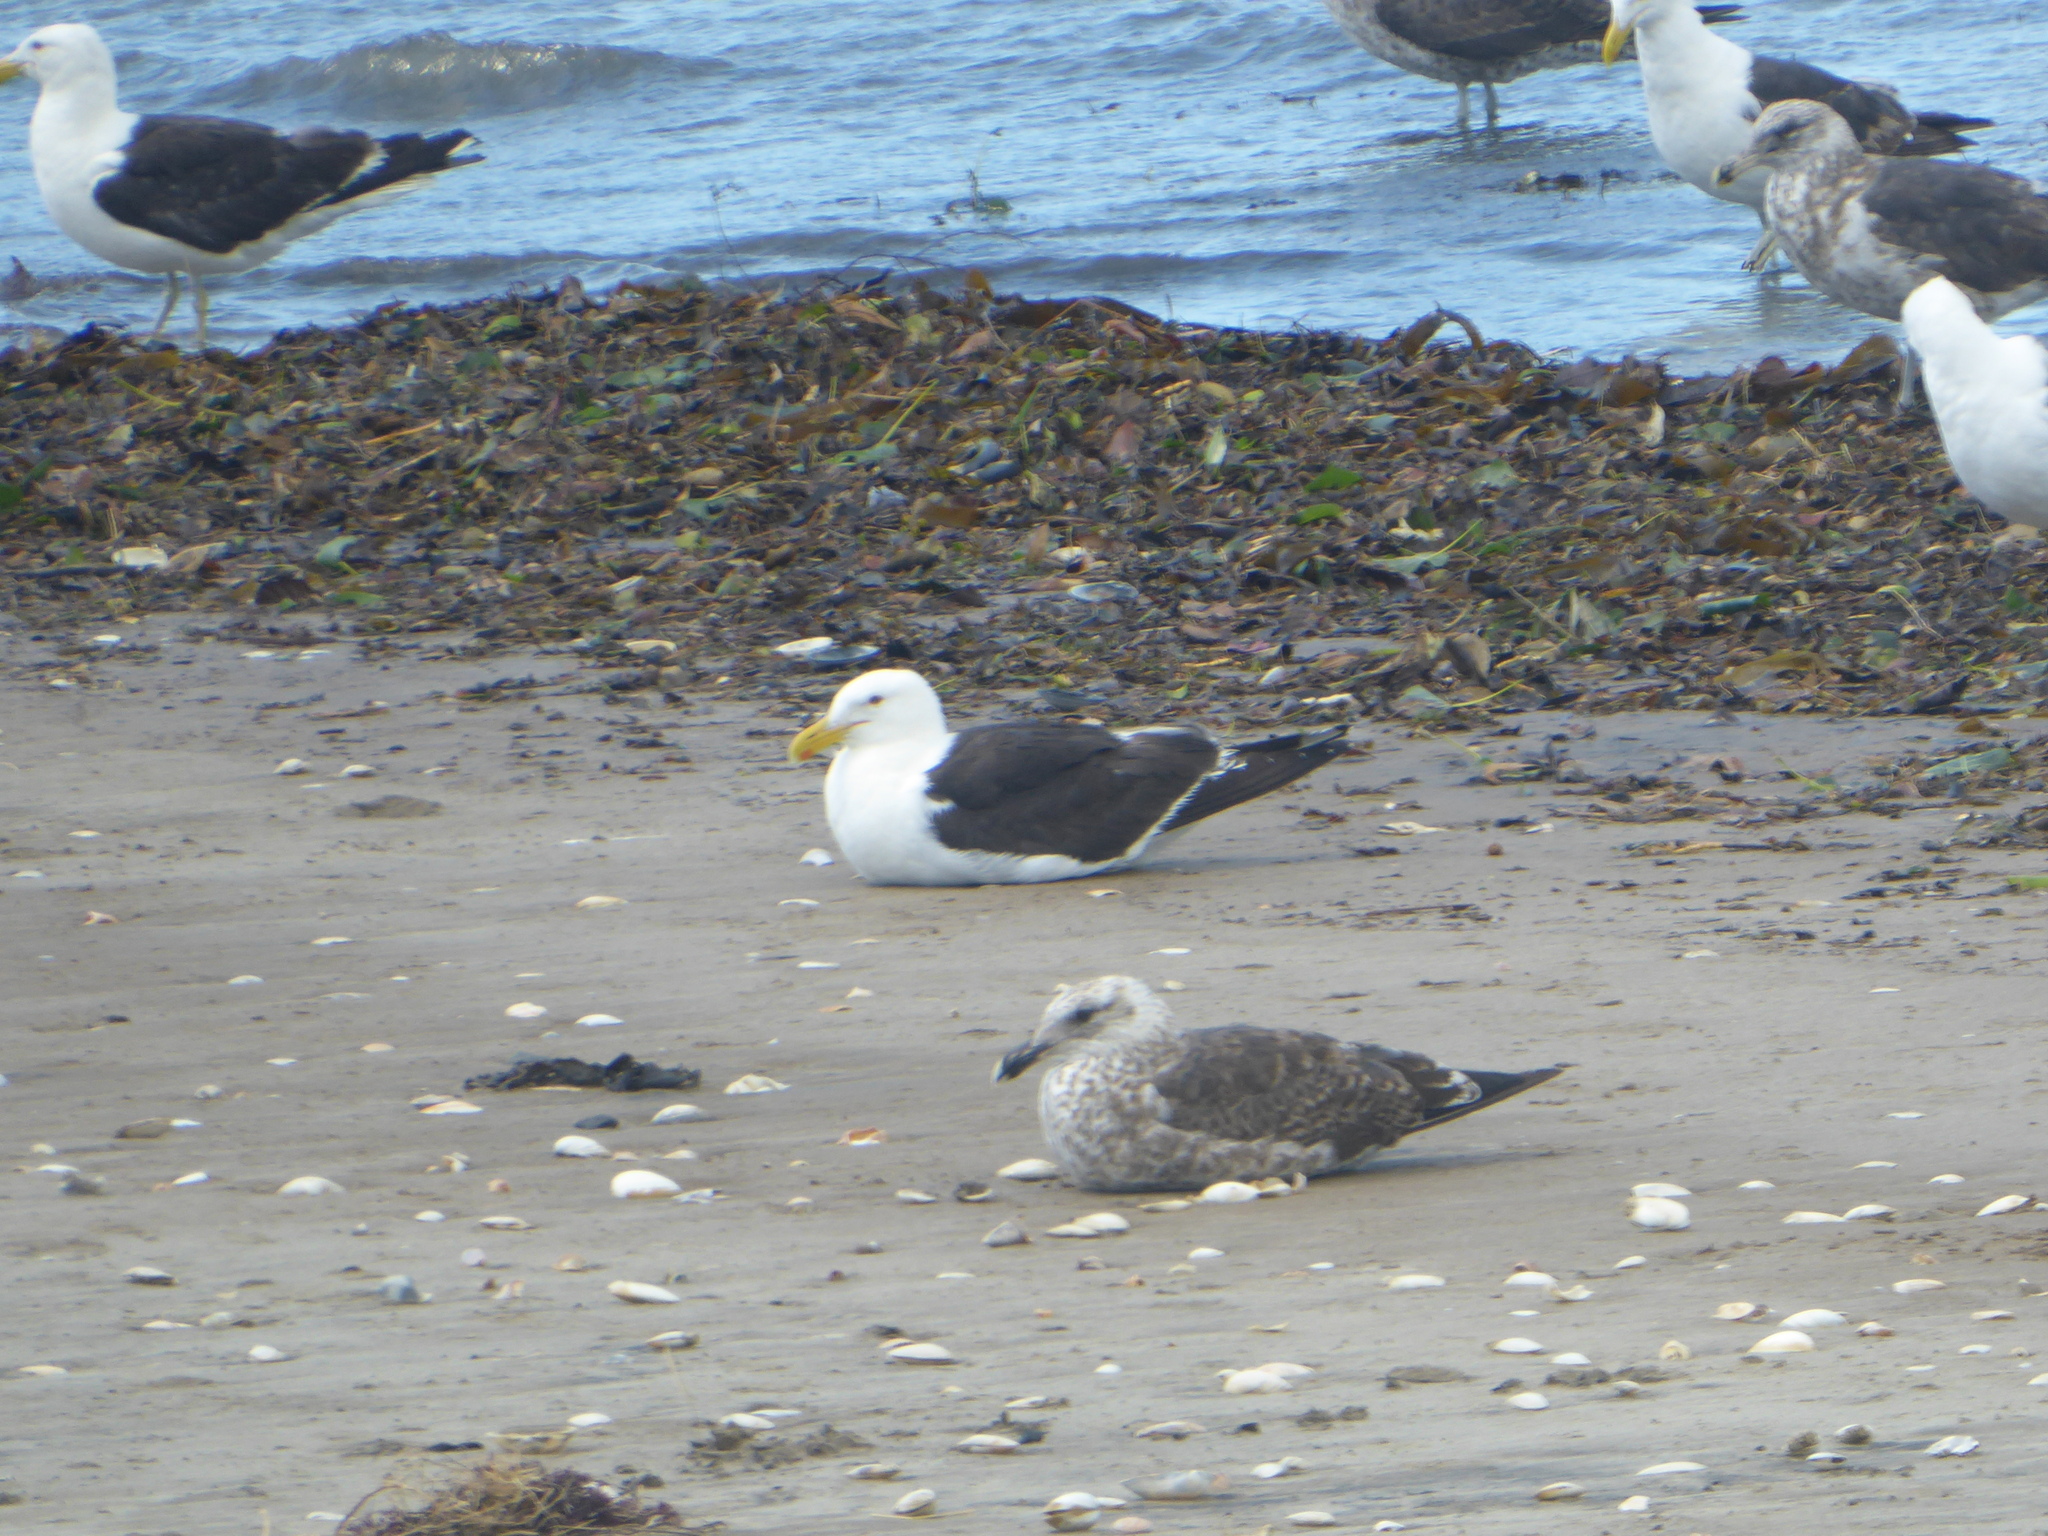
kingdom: Animalia
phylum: Chordata
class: Aves
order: Charadriiformes
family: Laridae
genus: Larus
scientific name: Larus dominicanus
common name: Kelp gull
